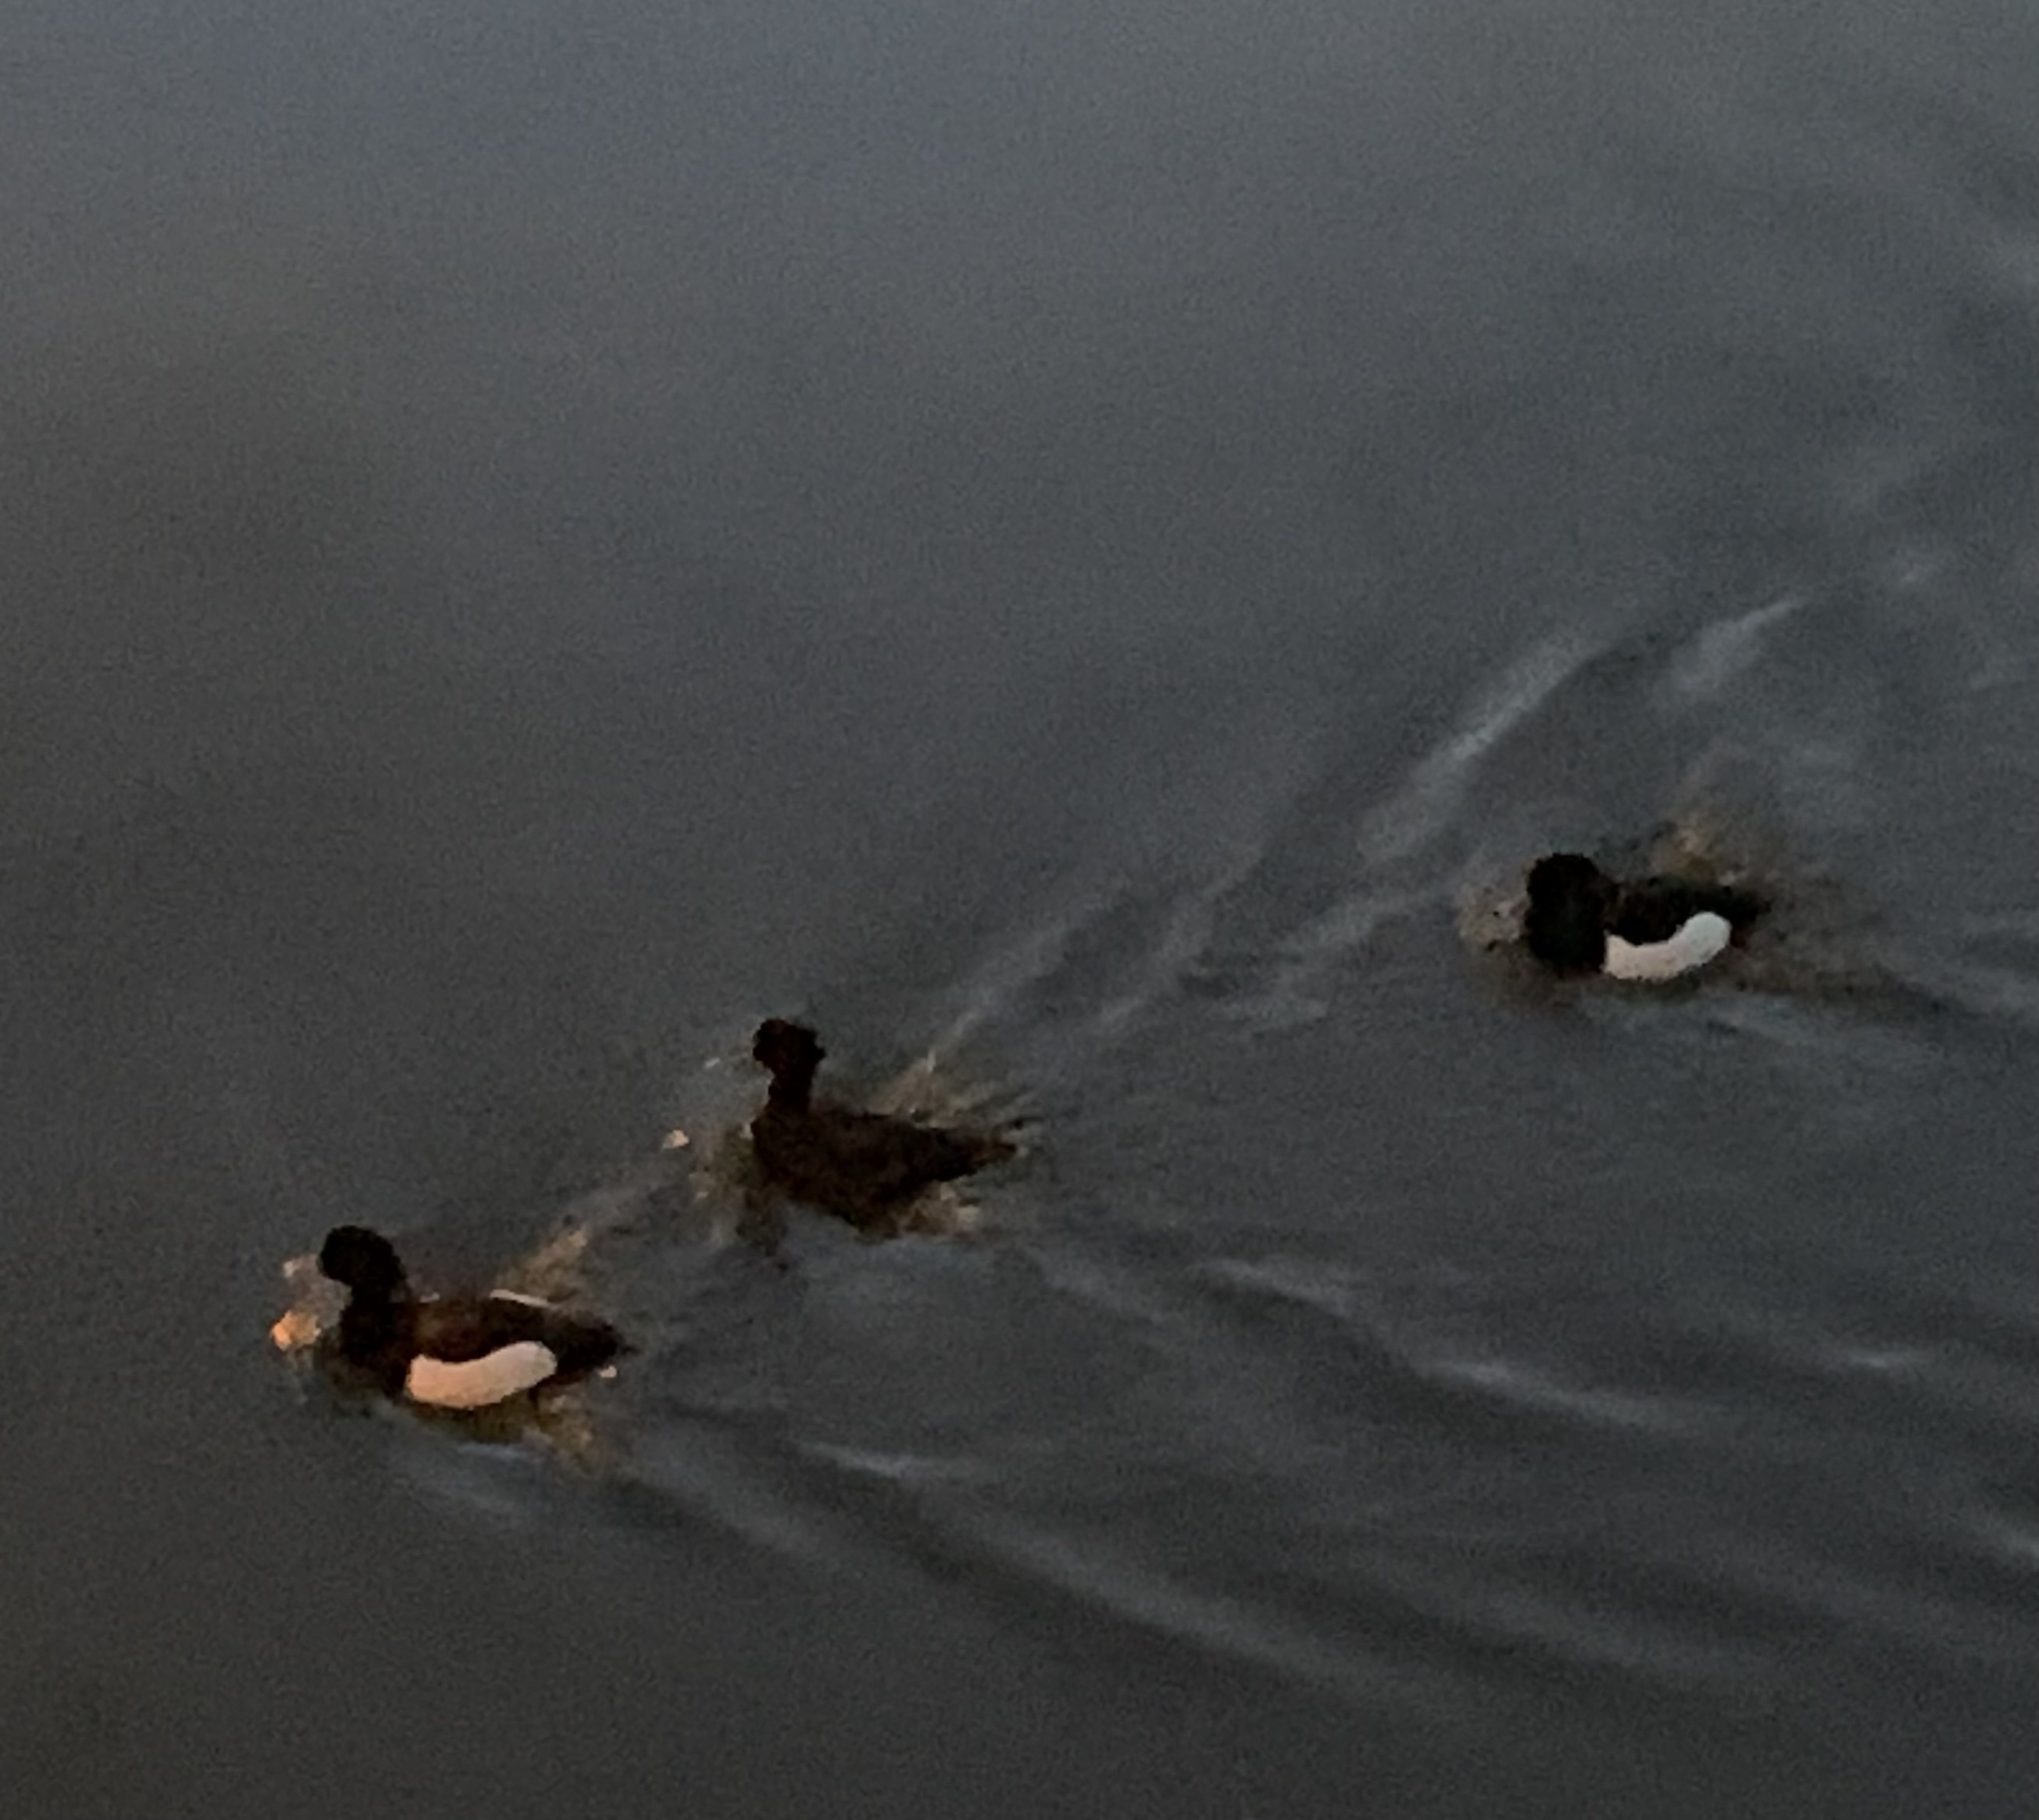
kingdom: Animalia
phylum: Chordata
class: Aves
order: Anseriformes
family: Anatidae
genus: Aythya
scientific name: Aythya fuligula
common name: Tufted duck
